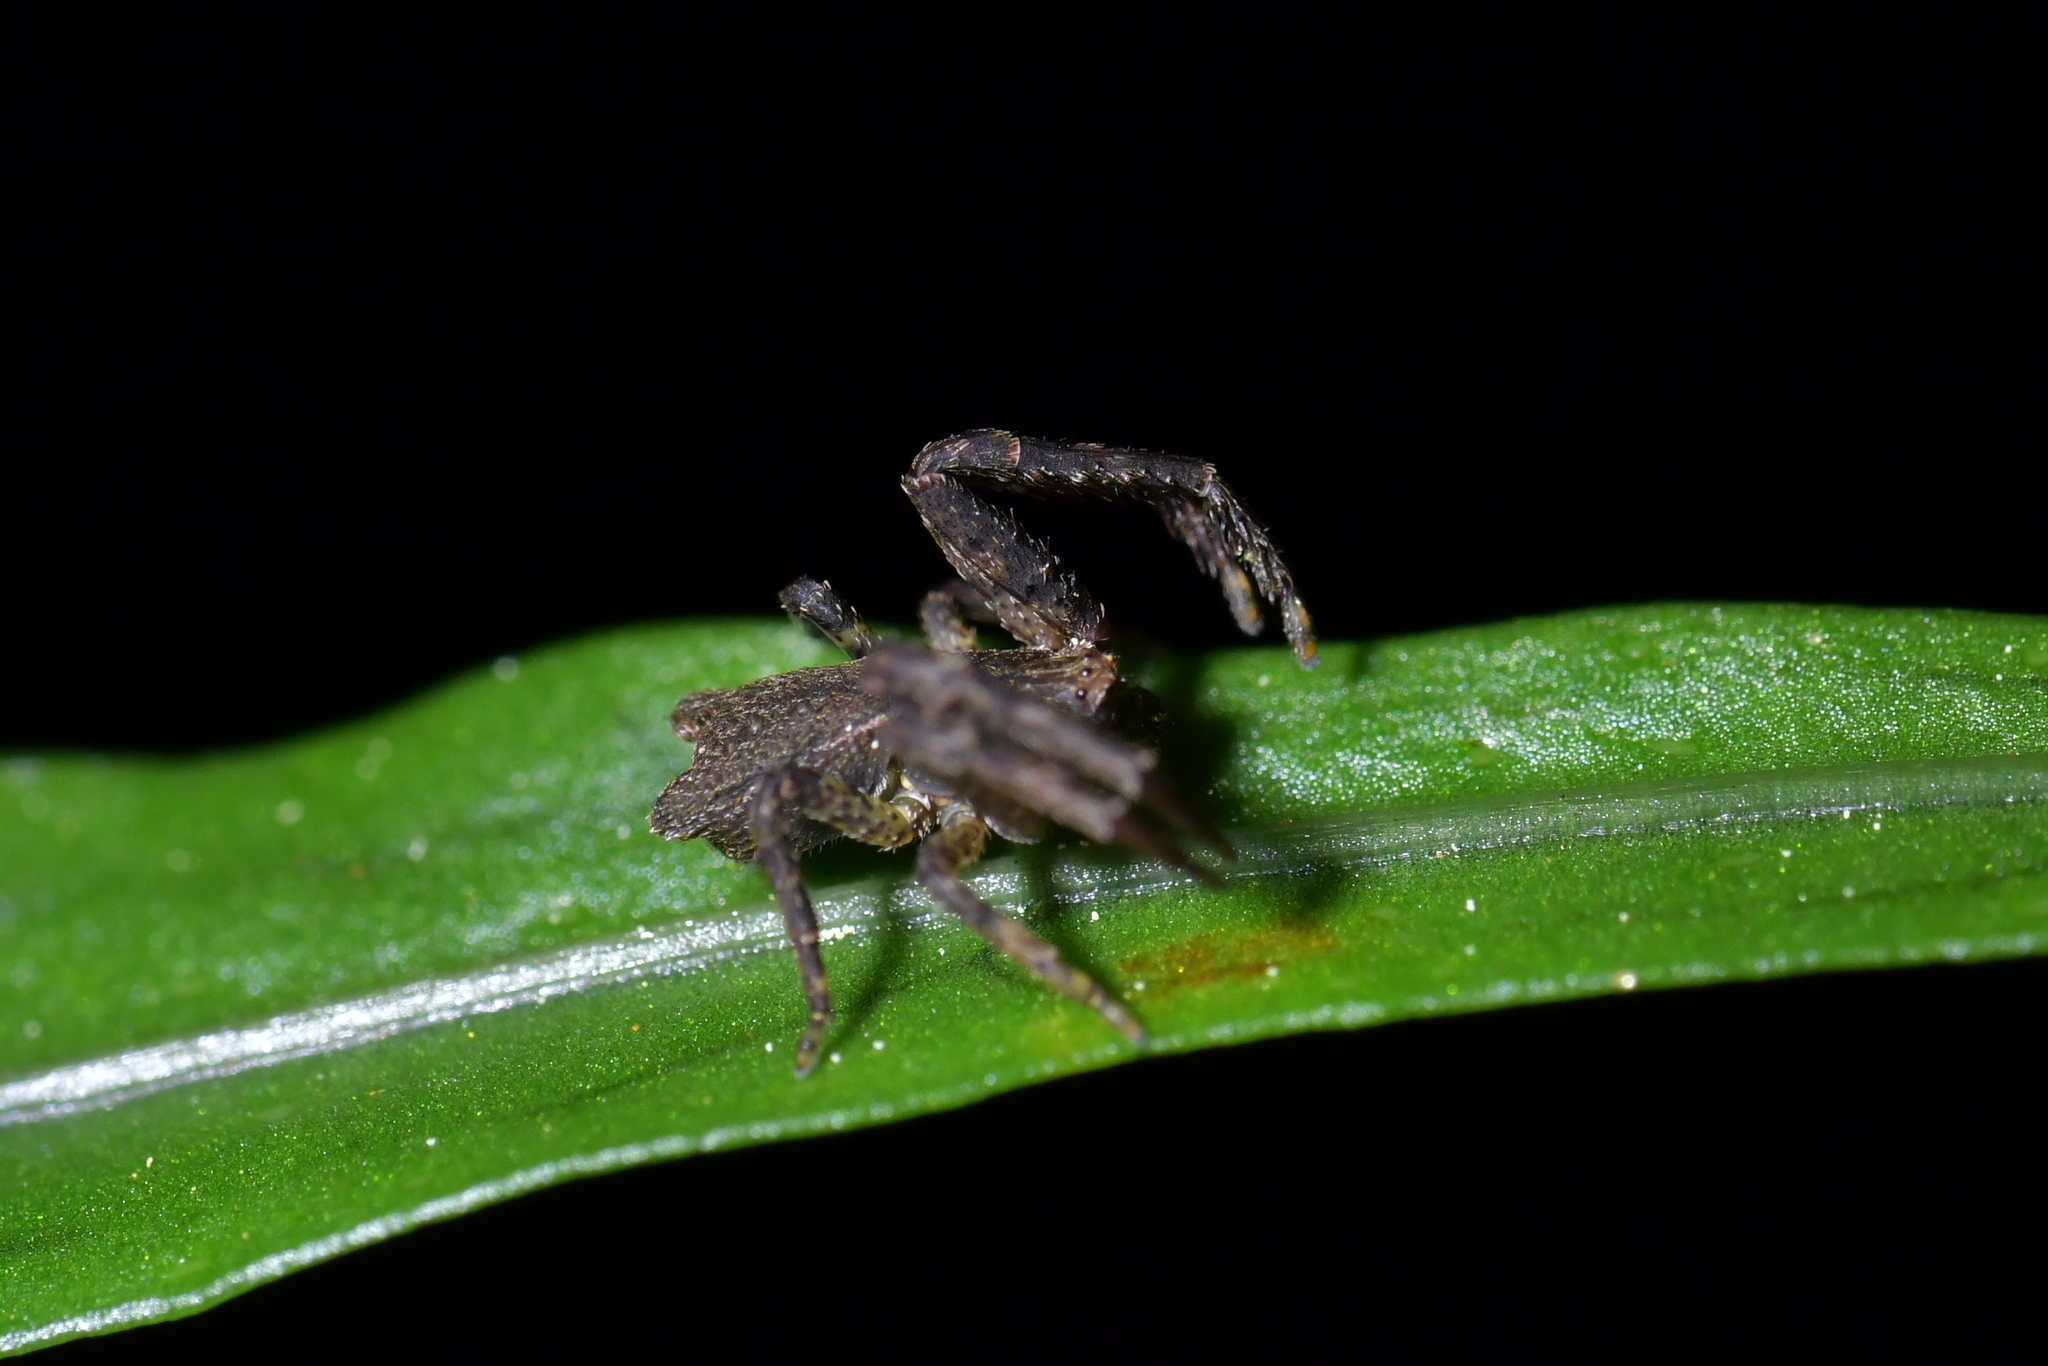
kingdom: Animalia
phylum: Arthropoda
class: Arachnida
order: Araneae
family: Thomisidae
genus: Sidymella
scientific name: Sidymella angularis
